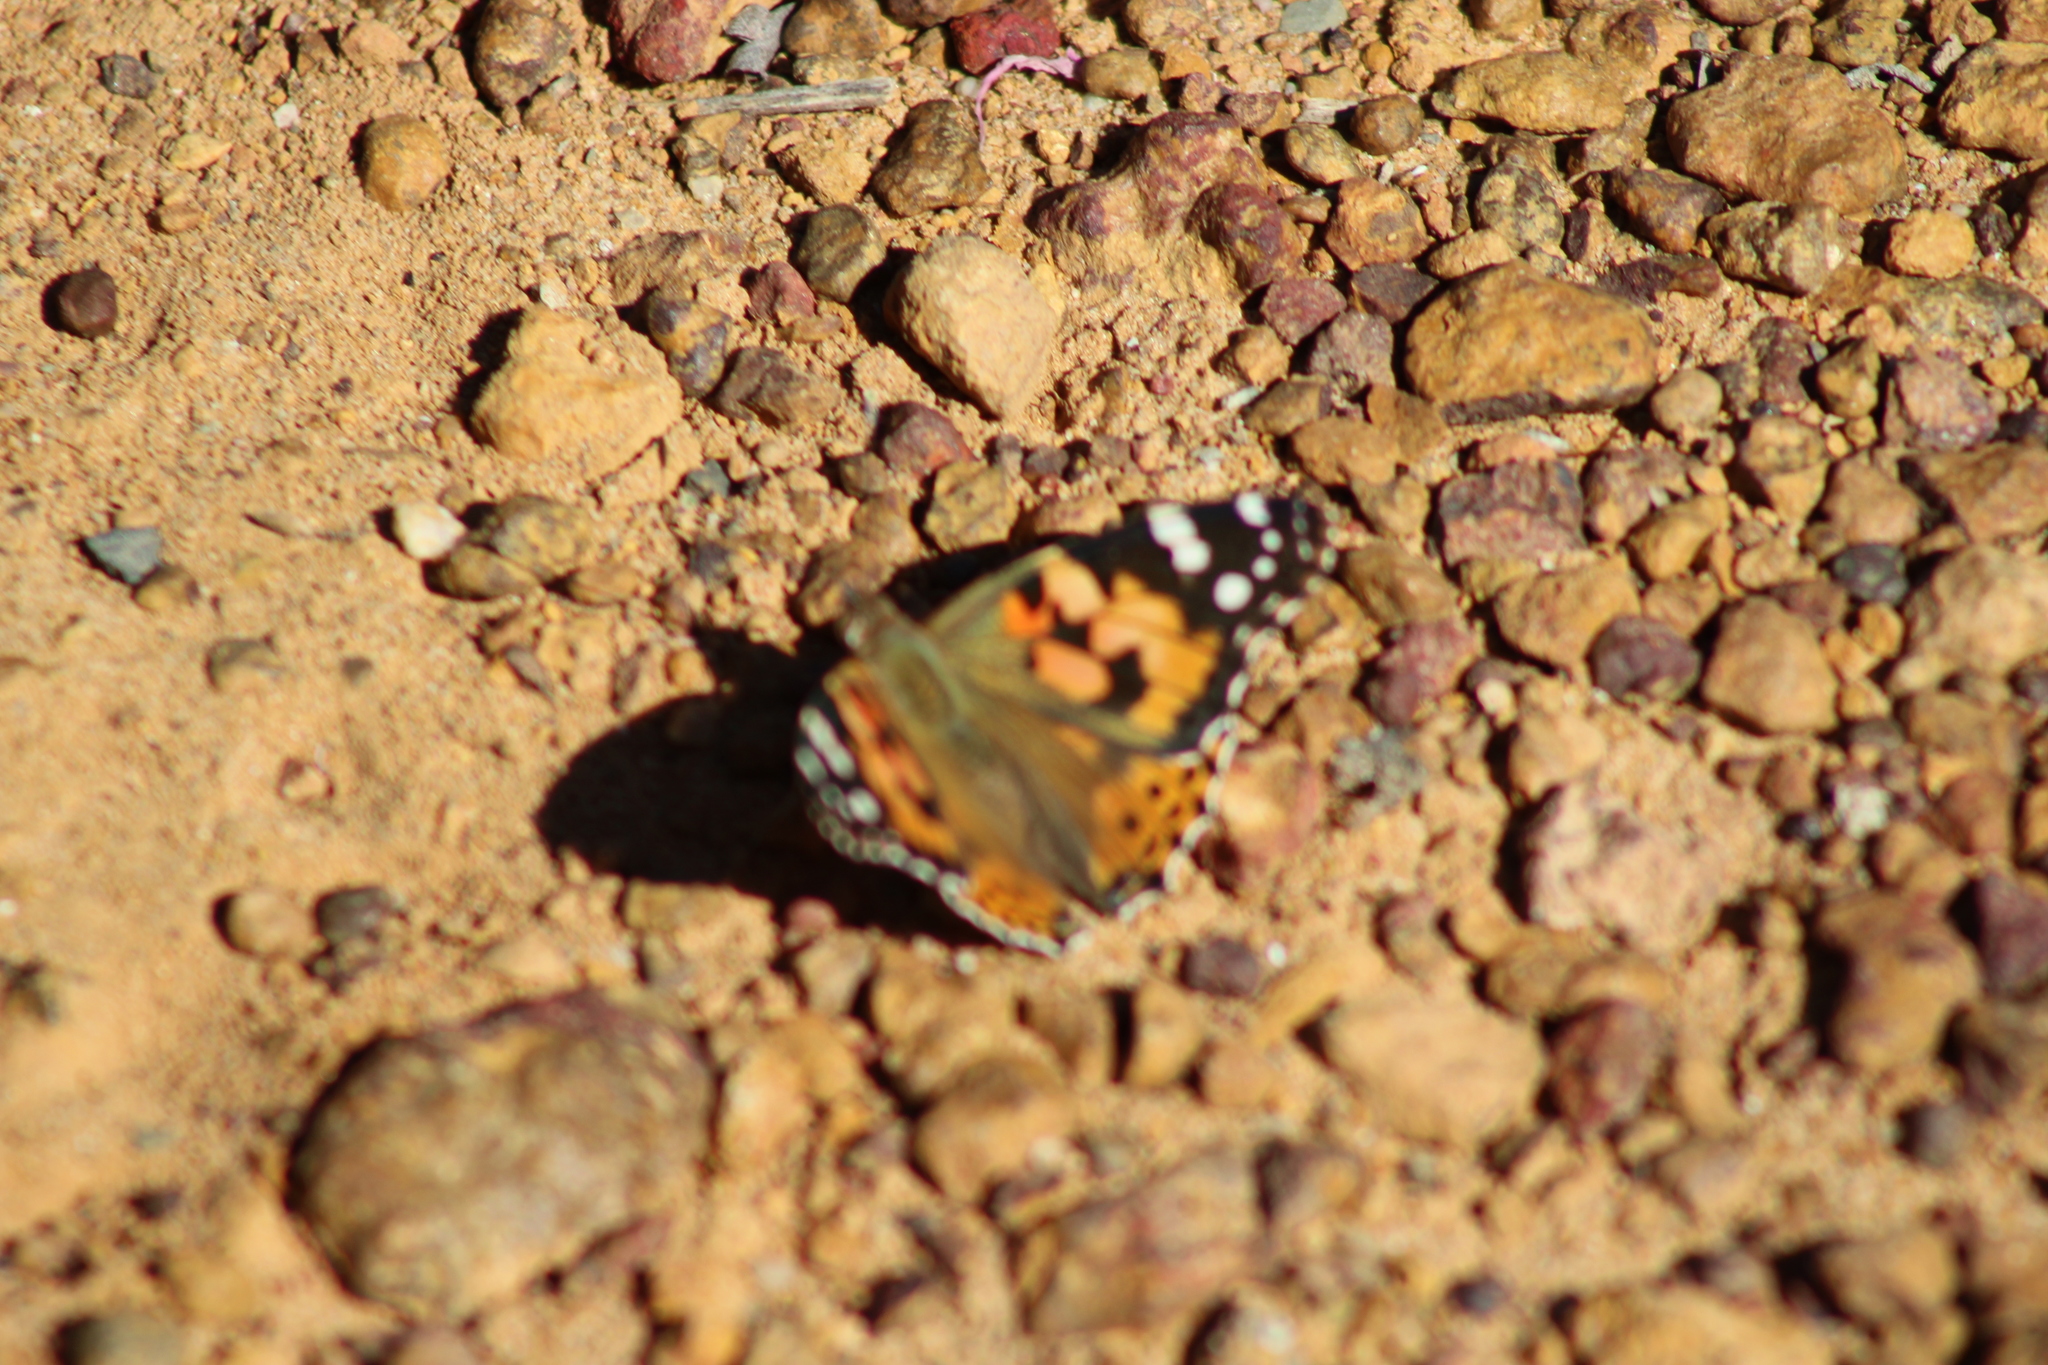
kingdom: Animalia
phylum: Arthropoda
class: Insecta
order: Lepidoptera
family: Nymphalidae
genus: Vanessa
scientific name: Vanessa cardui
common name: Painted lady
